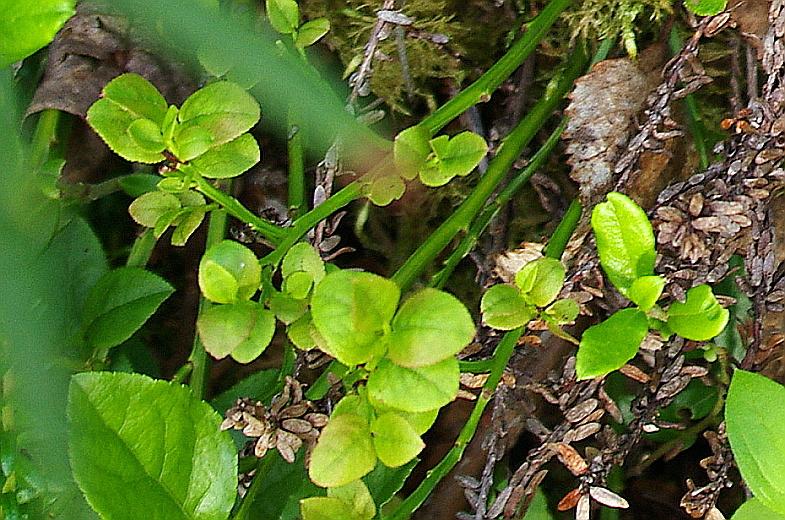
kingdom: Plantae
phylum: Tracheophyta
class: Magnoliopsida
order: Ericales
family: Ericaceae
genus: Vaccinium
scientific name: Vaccinium myrtillus
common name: Bilberry
